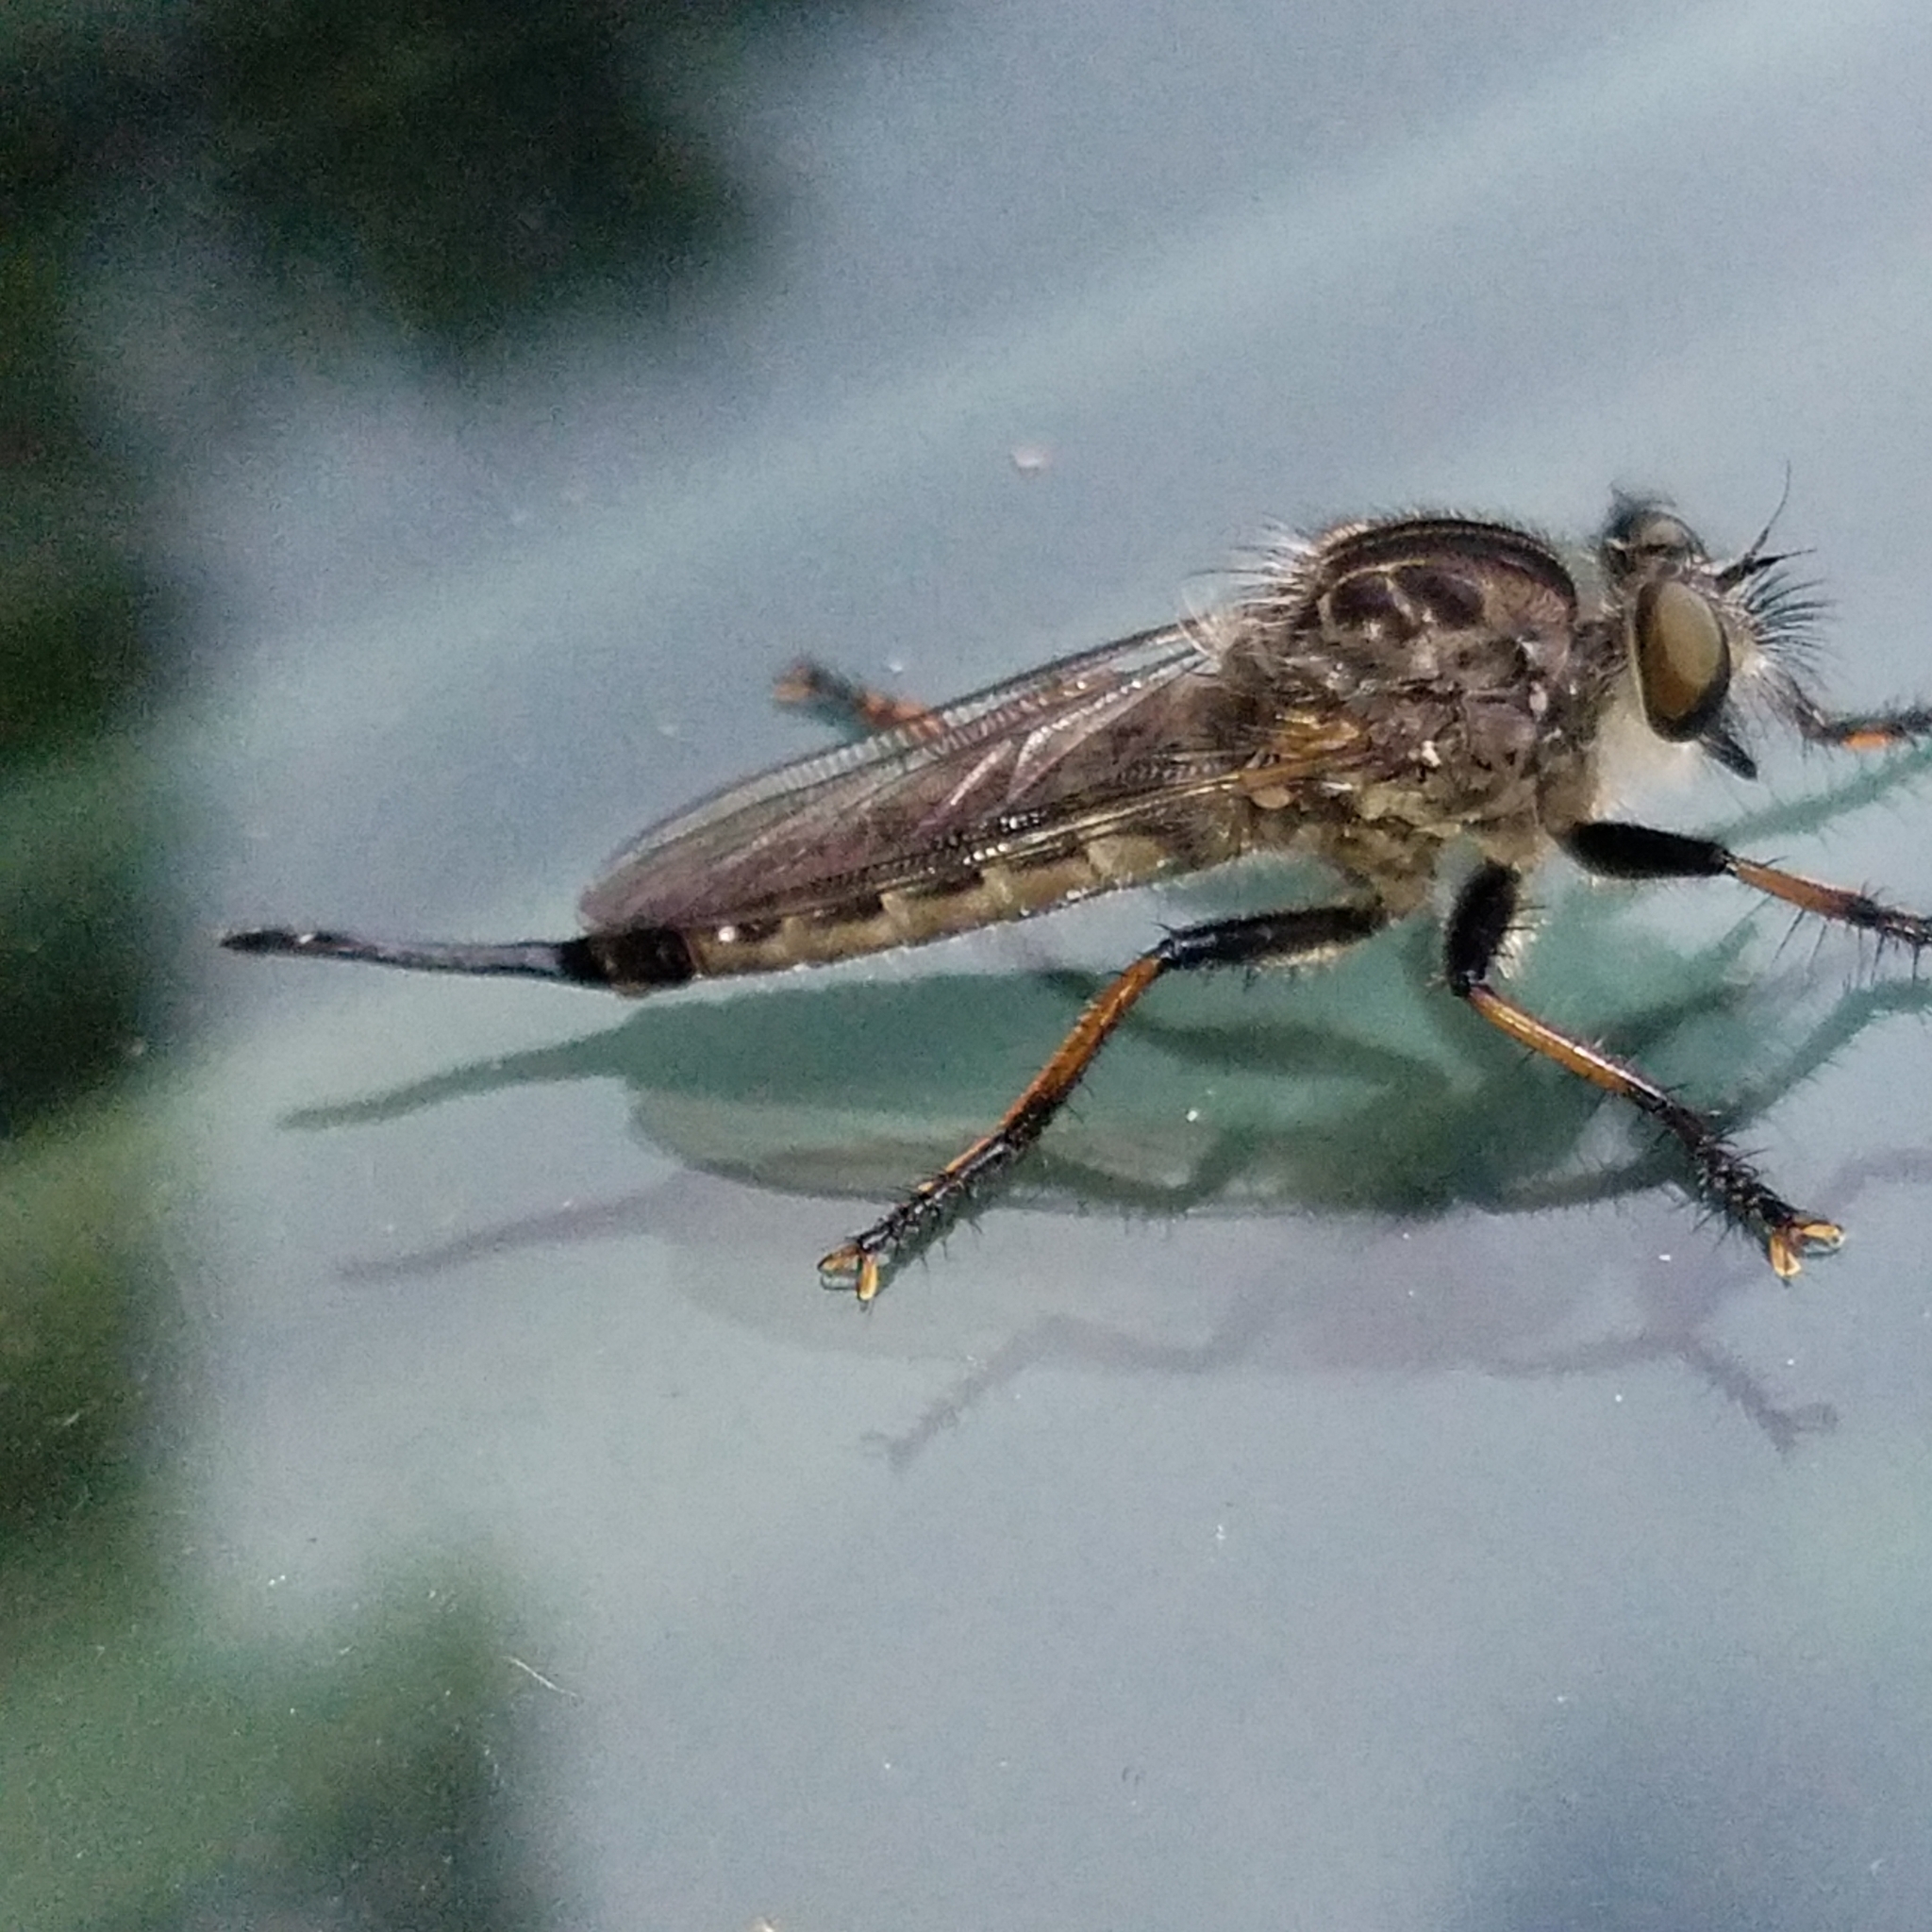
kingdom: Animalia
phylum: Arthropoda
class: Insecta
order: Diptera
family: Asilidae
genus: Efferia
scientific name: Efferia aestuans
